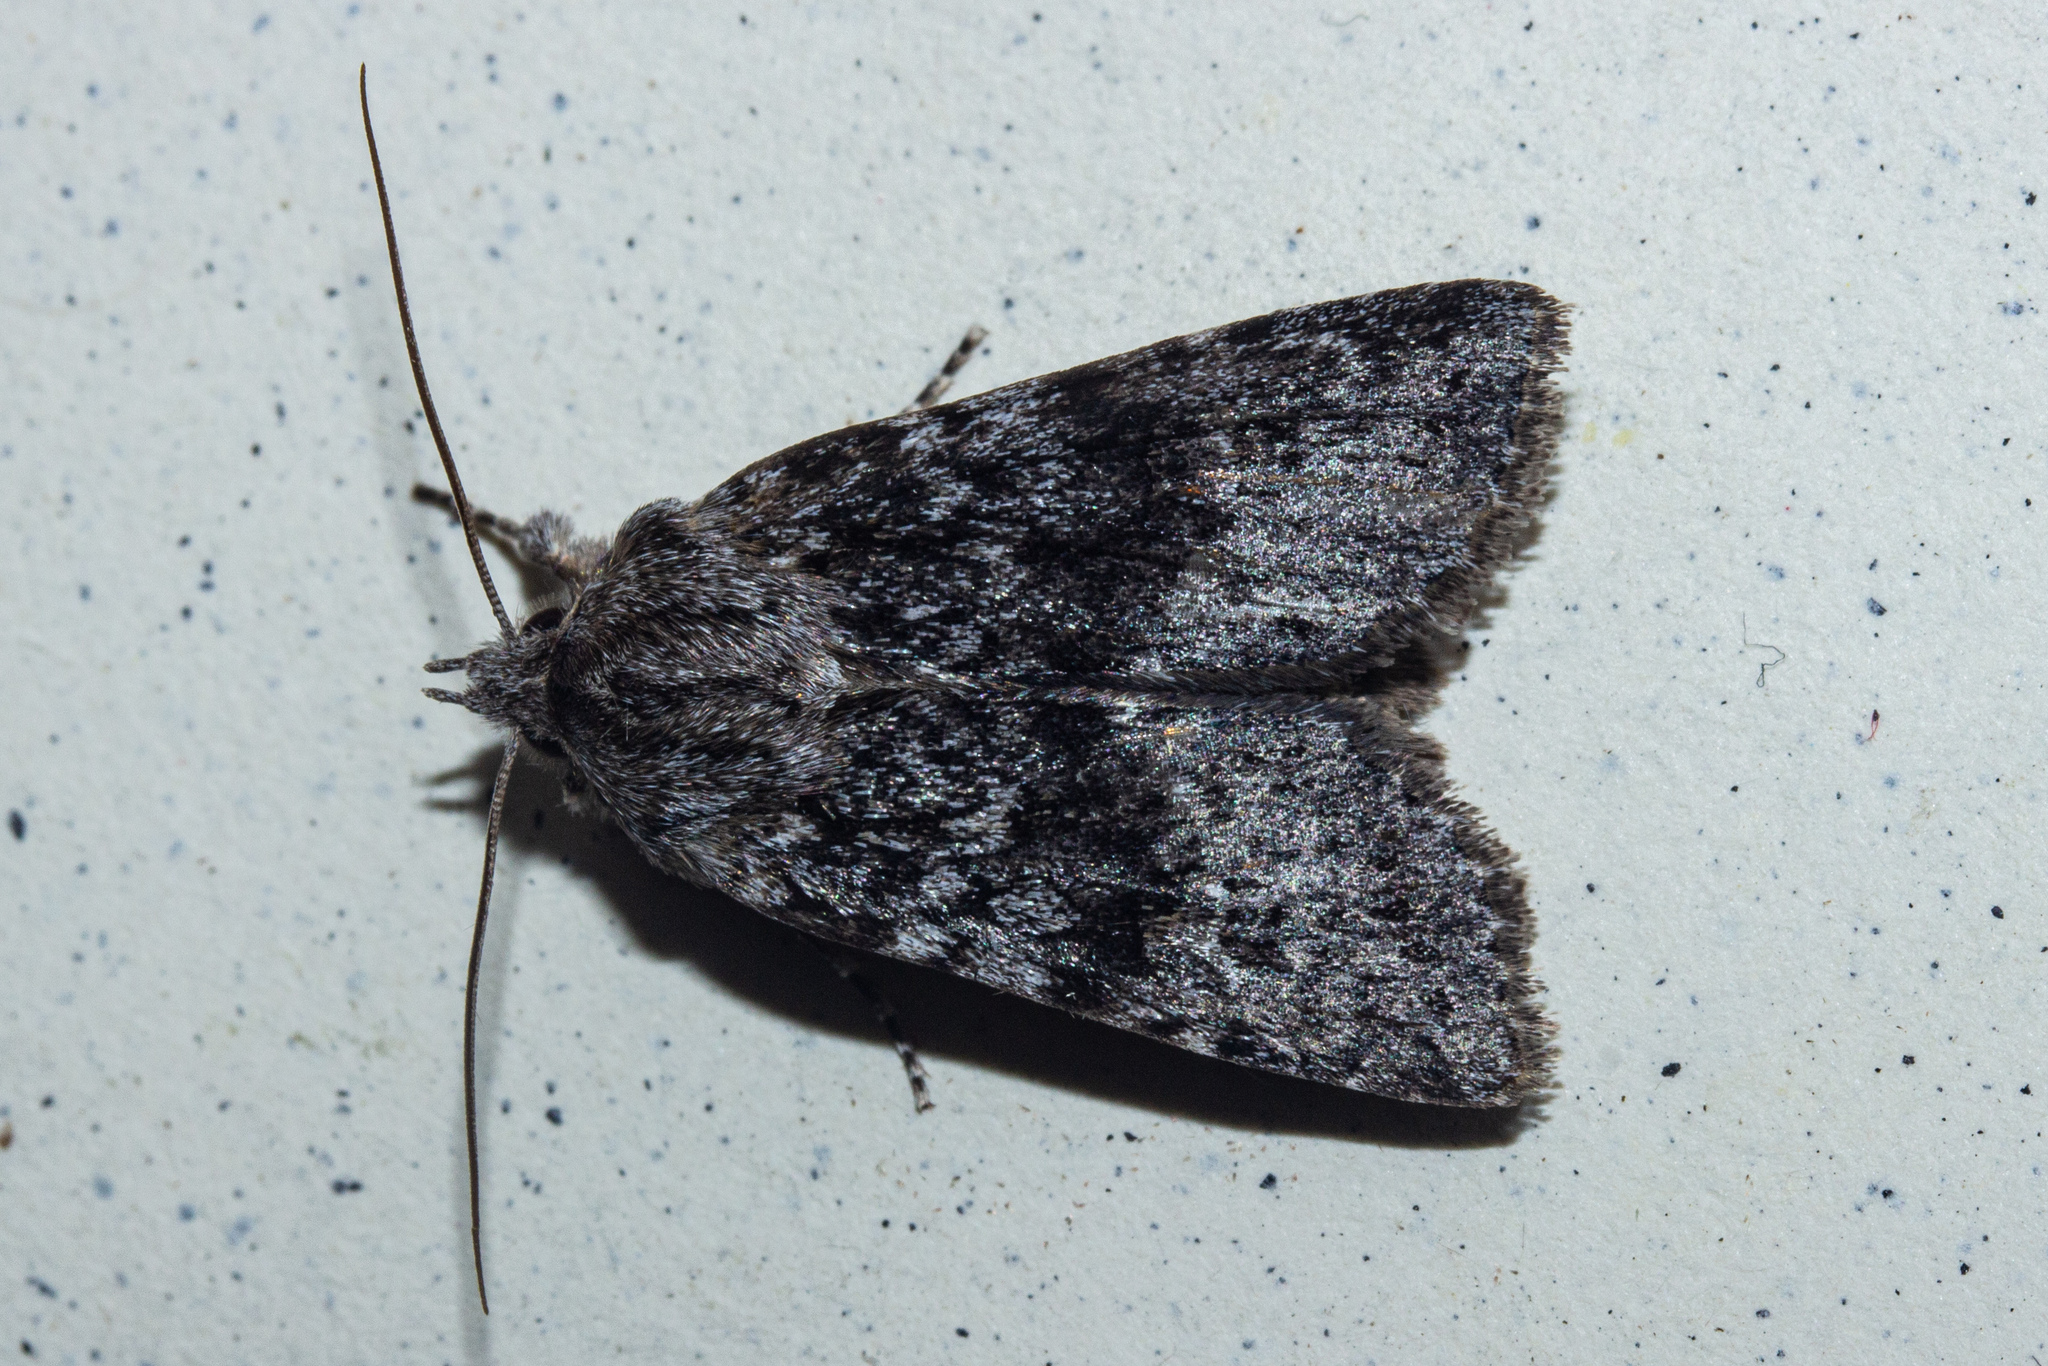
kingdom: Animalia
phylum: Arthropoda
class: Insecta
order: Lepidoptera
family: Noctuidae
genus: Physetica
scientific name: Physetica
